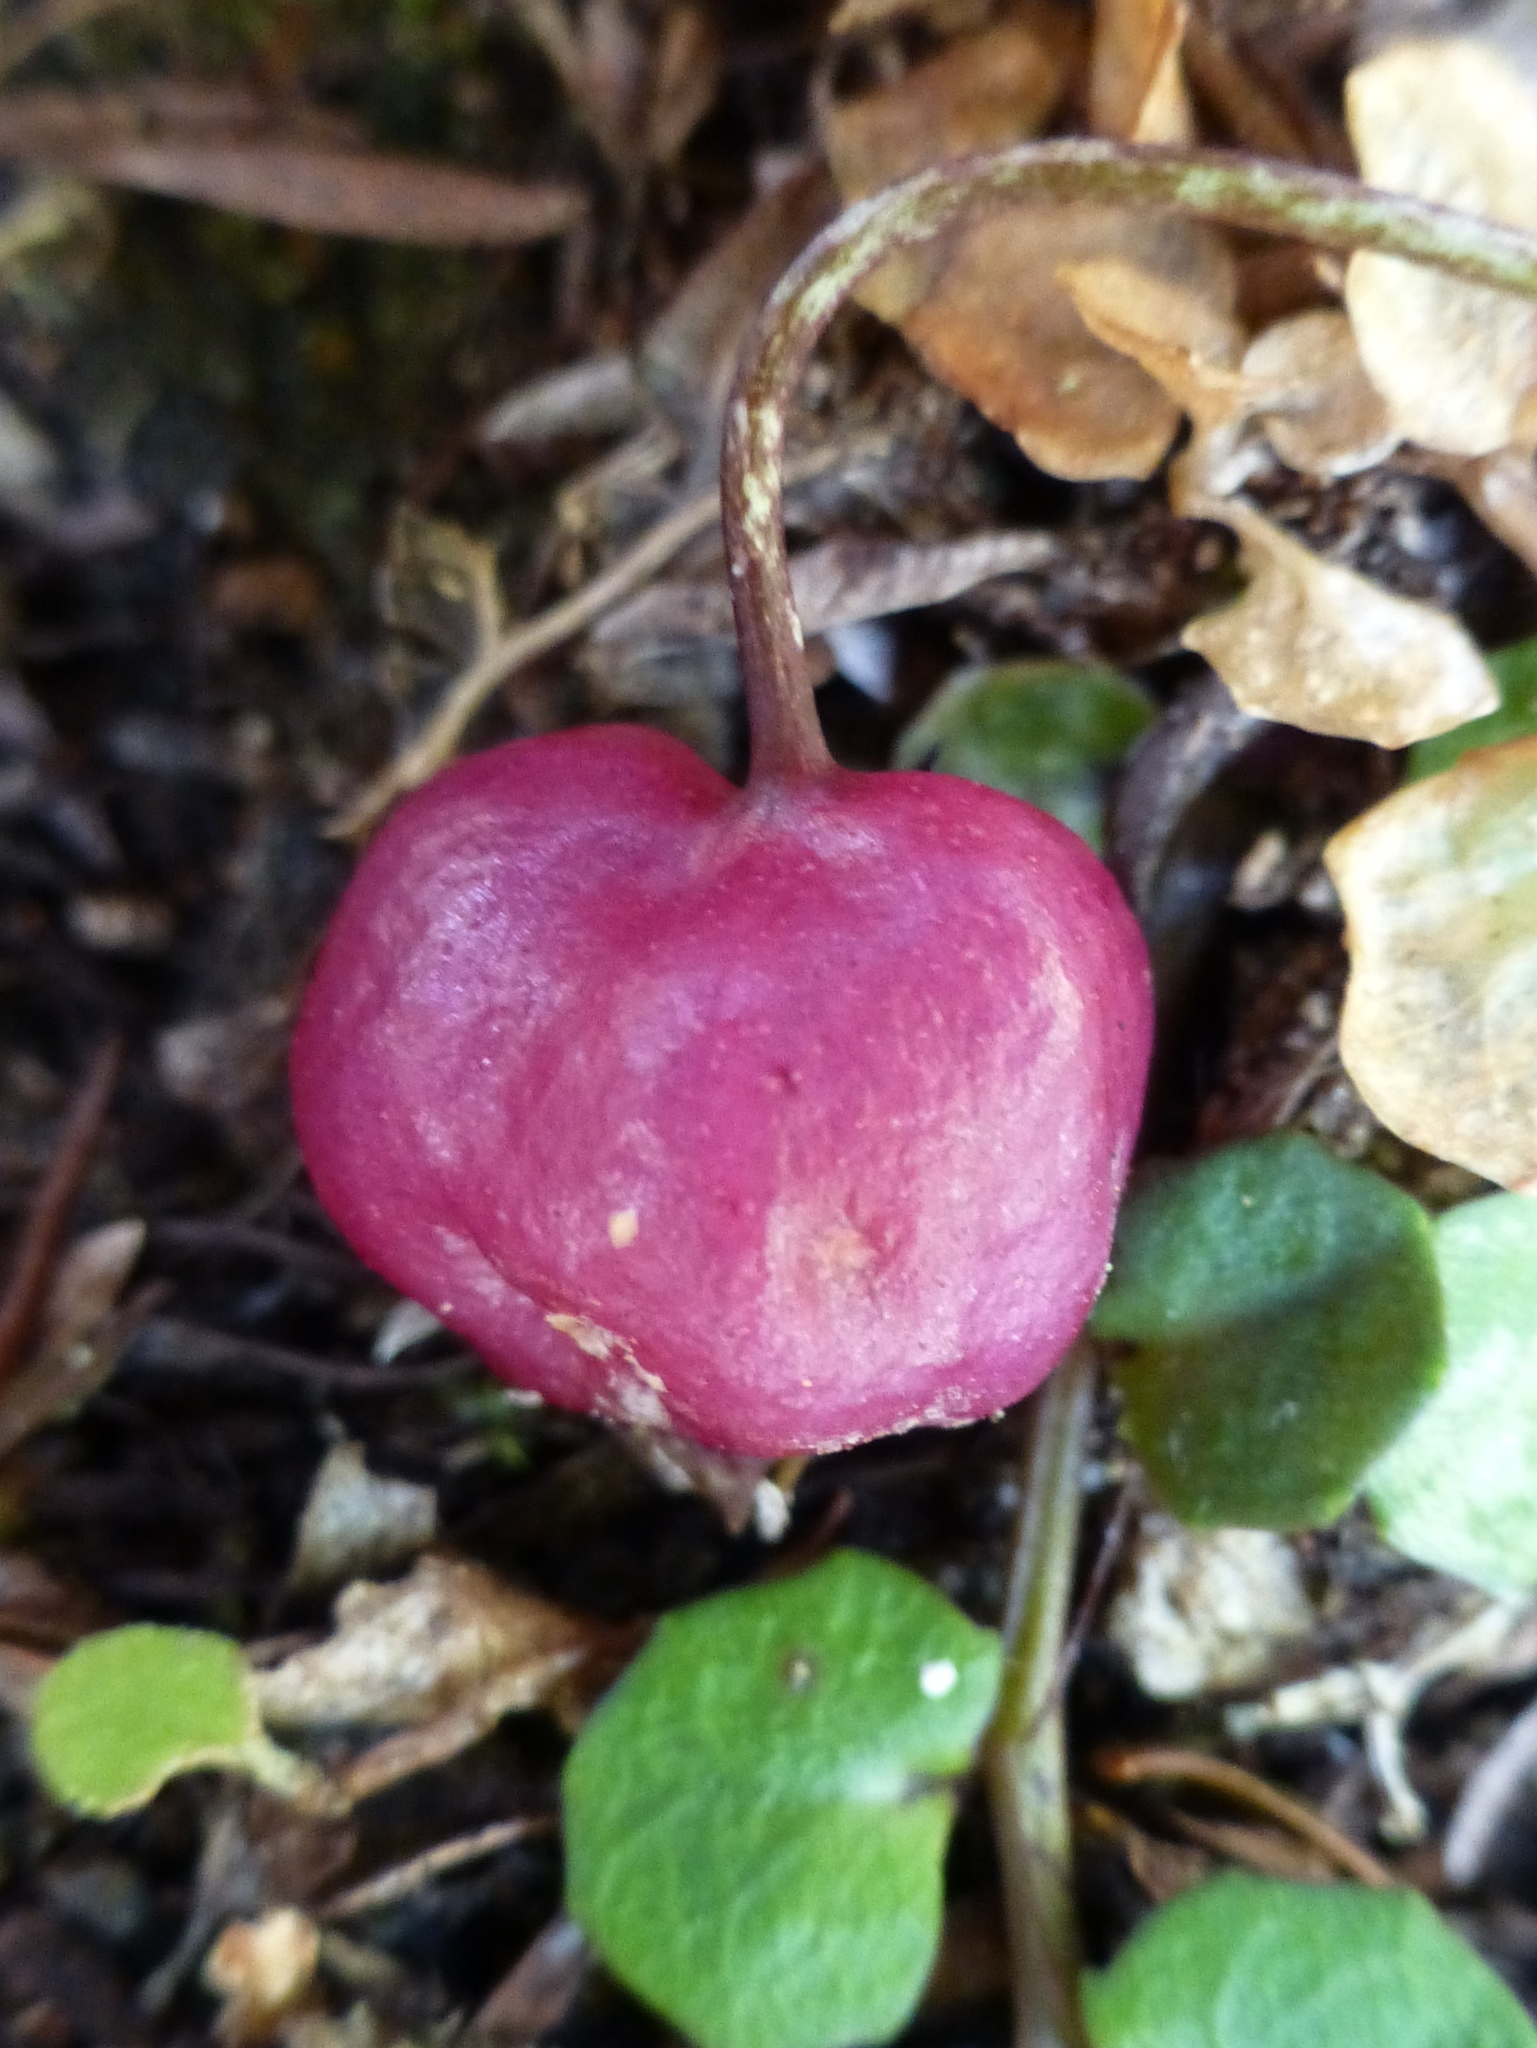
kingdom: Plantae
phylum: Tracheophyta
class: Magnoliopsida
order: Asterales
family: Campanulaceae
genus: Lobelia
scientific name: Lobelia angulata
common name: Lawn lobelia
